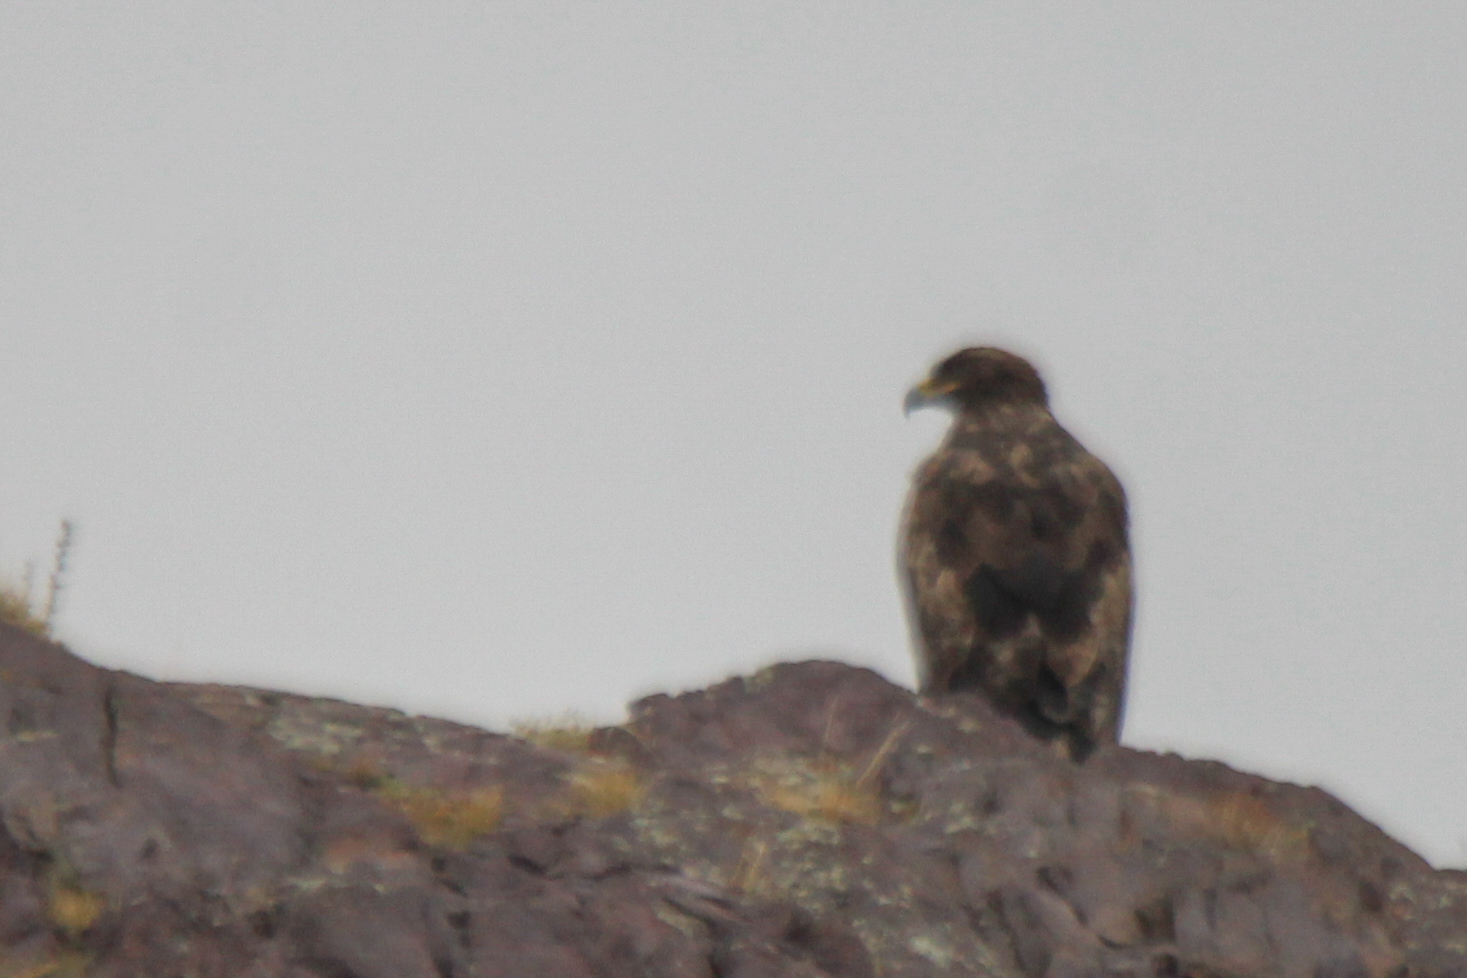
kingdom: Animalia
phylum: Chordata
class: Aves
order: Accipitriformes
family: Accipitridae
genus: Aquila
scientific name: Aquila nipalensis
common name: Steppe eagle
